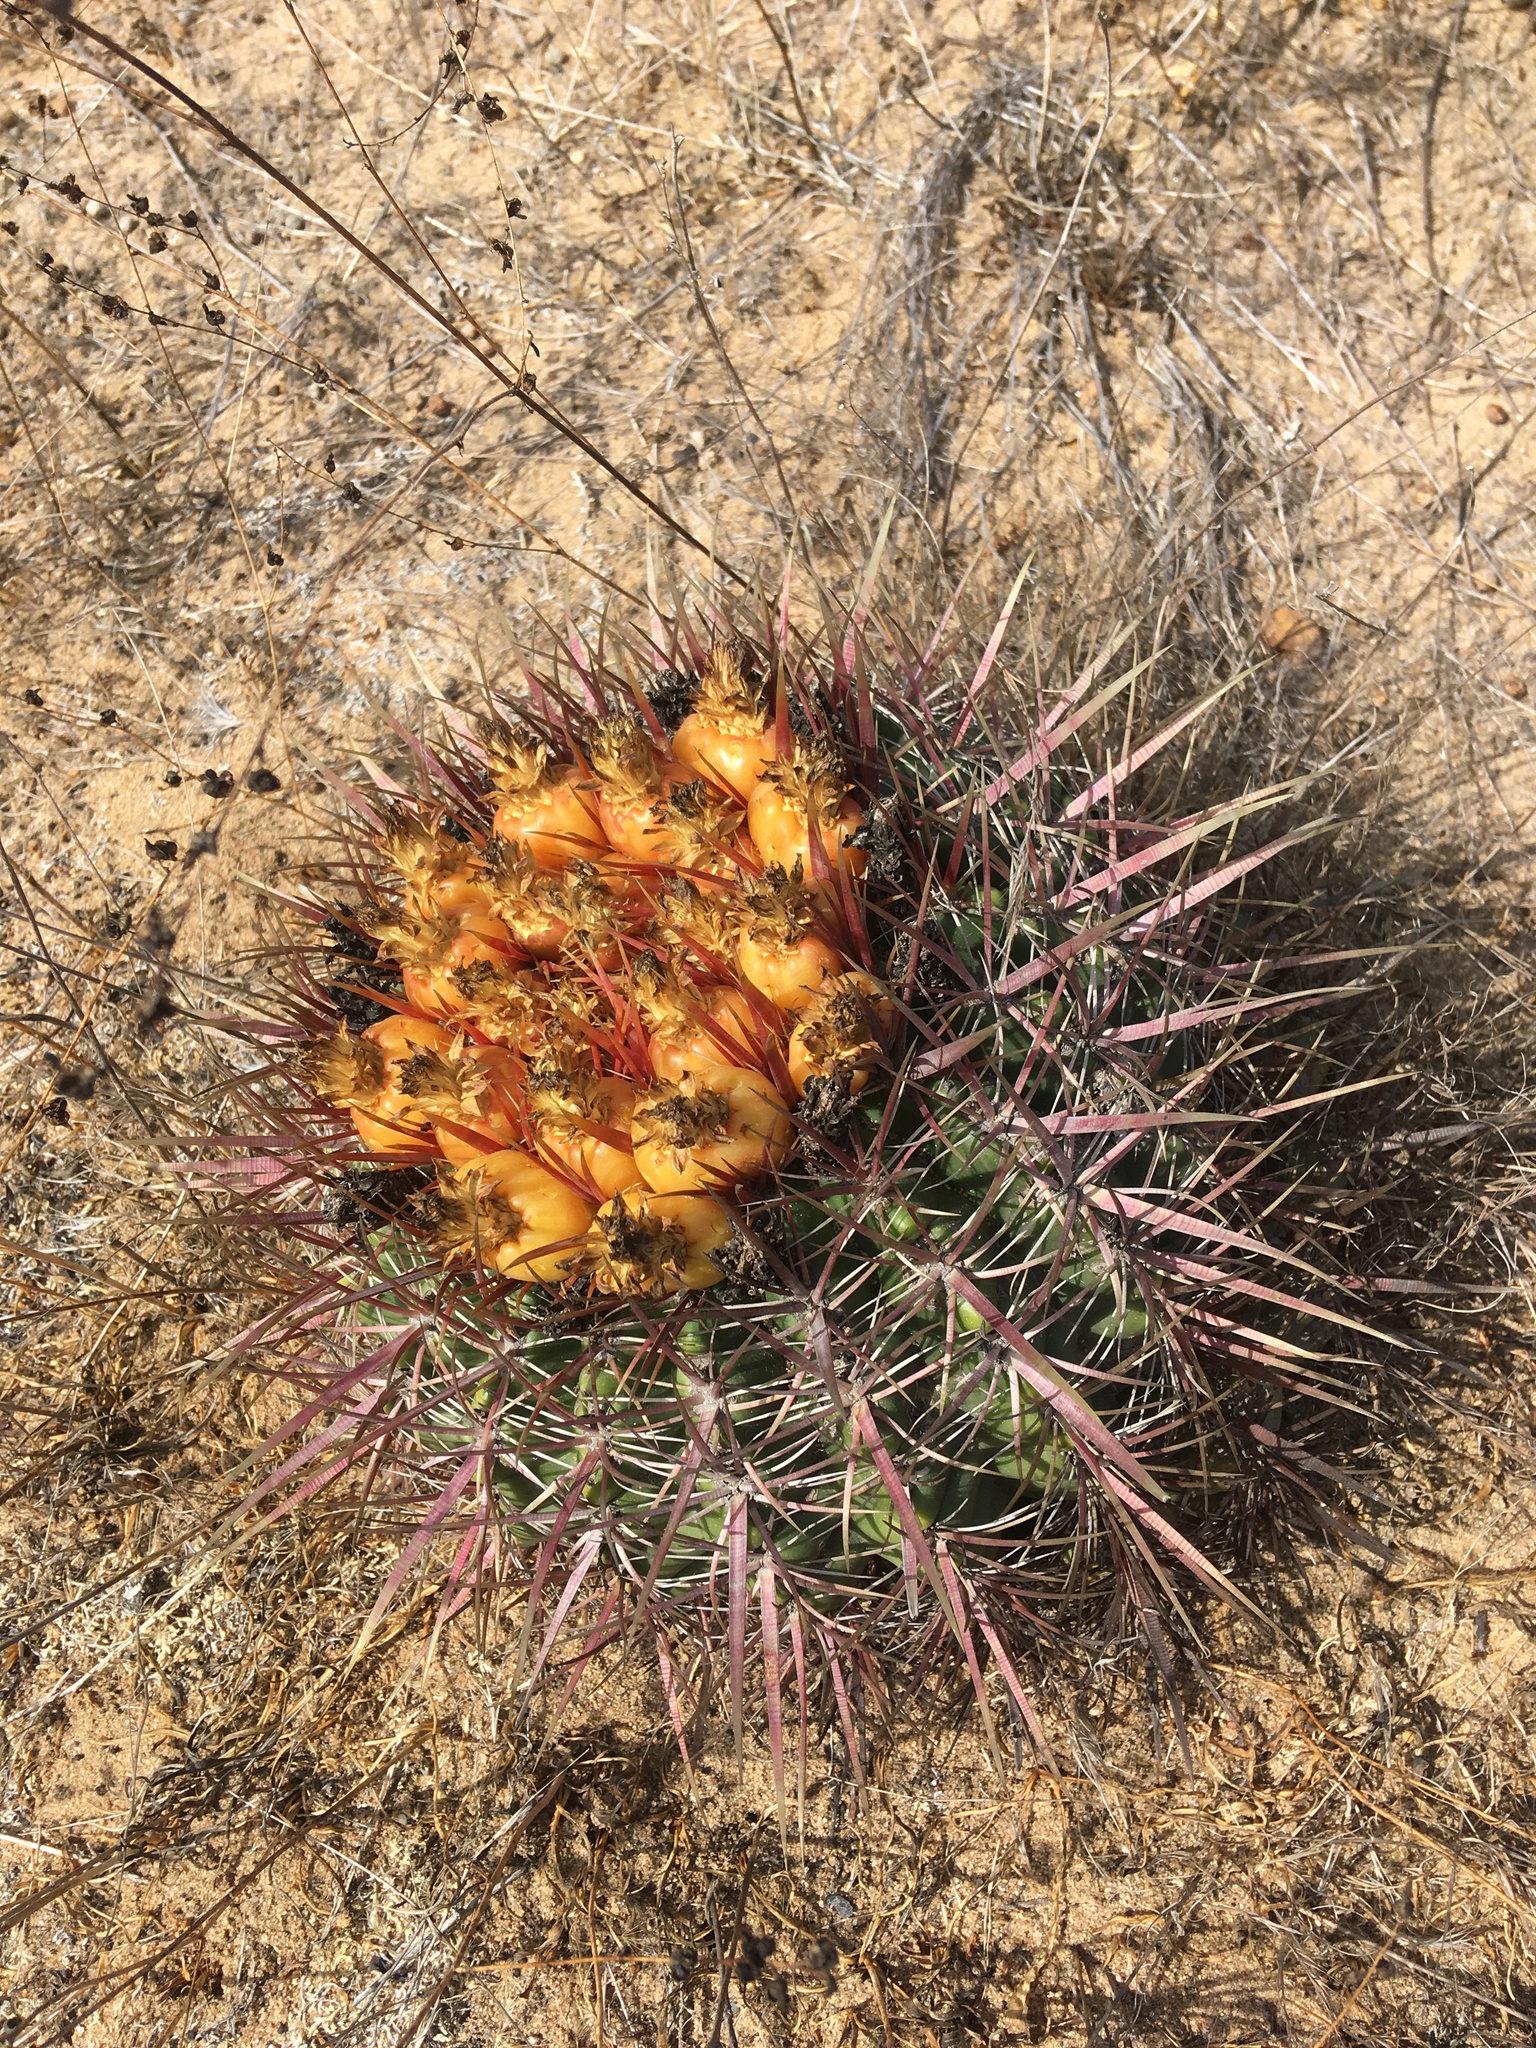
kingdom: Plantae
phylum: Tracheophyta
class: Magnoliopsida
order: Caryophyllales
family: Cactaceae
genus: Ferocactus
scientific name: Ferocactus viridescens
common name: San diego barrel cactus
